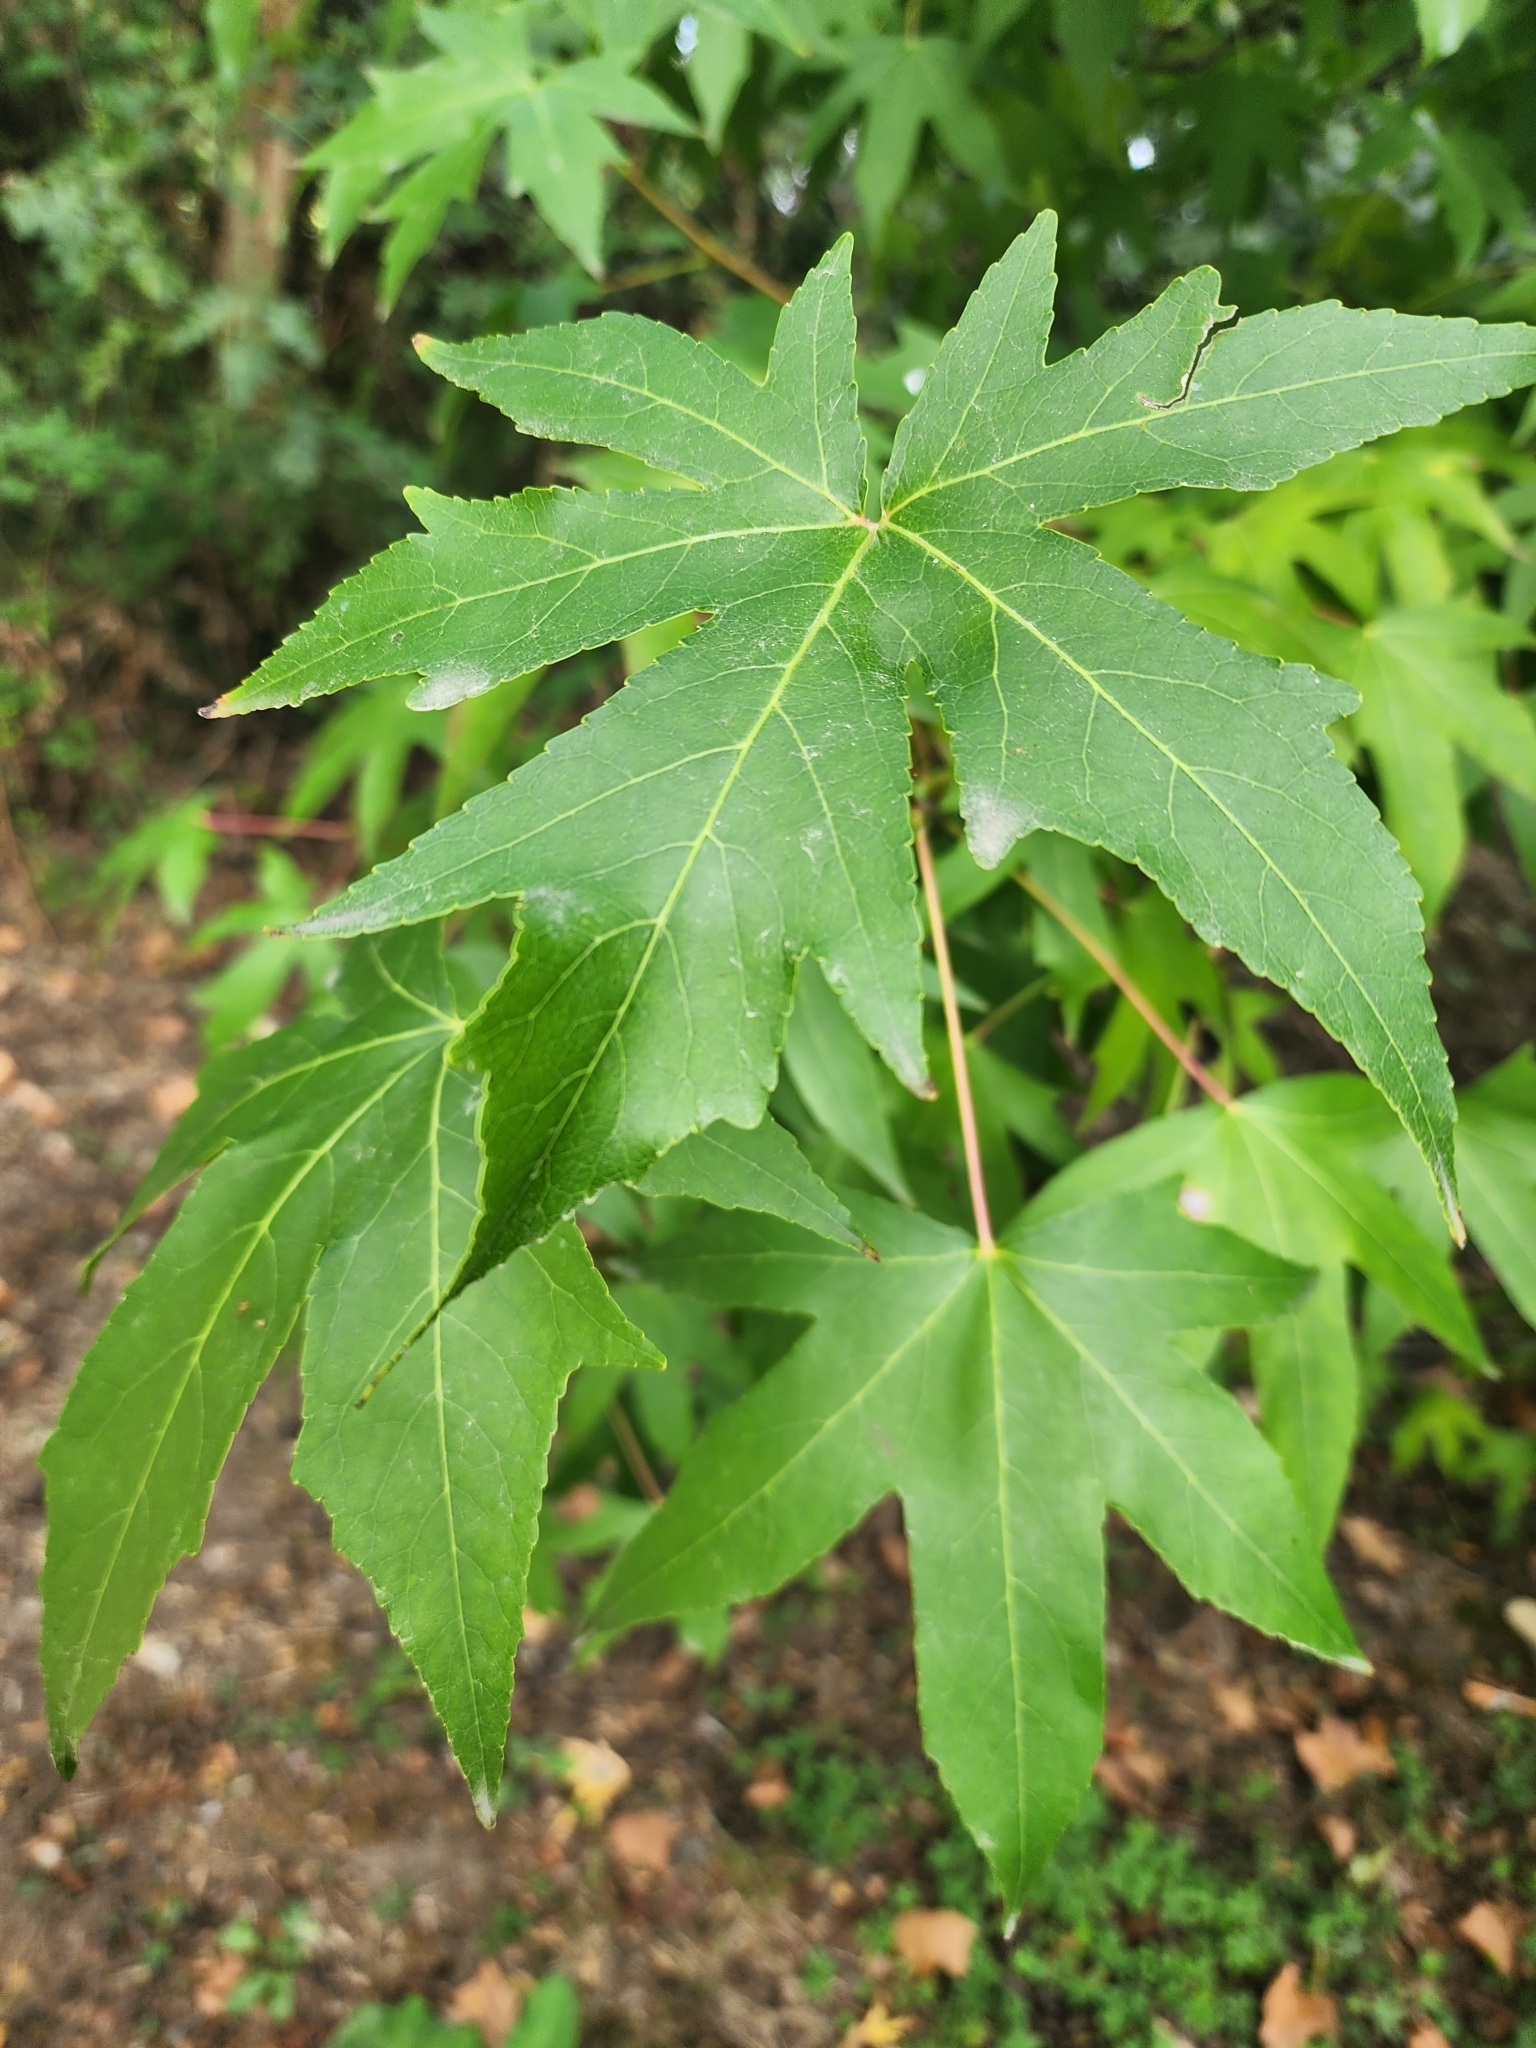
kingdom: Plantae
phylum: Tracheophyta
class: Magnoliopsida
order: Saxifragales
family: Altingiaceae
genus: Liquidambar
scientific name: Liquidambar styraciflua
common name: Sweet gum
